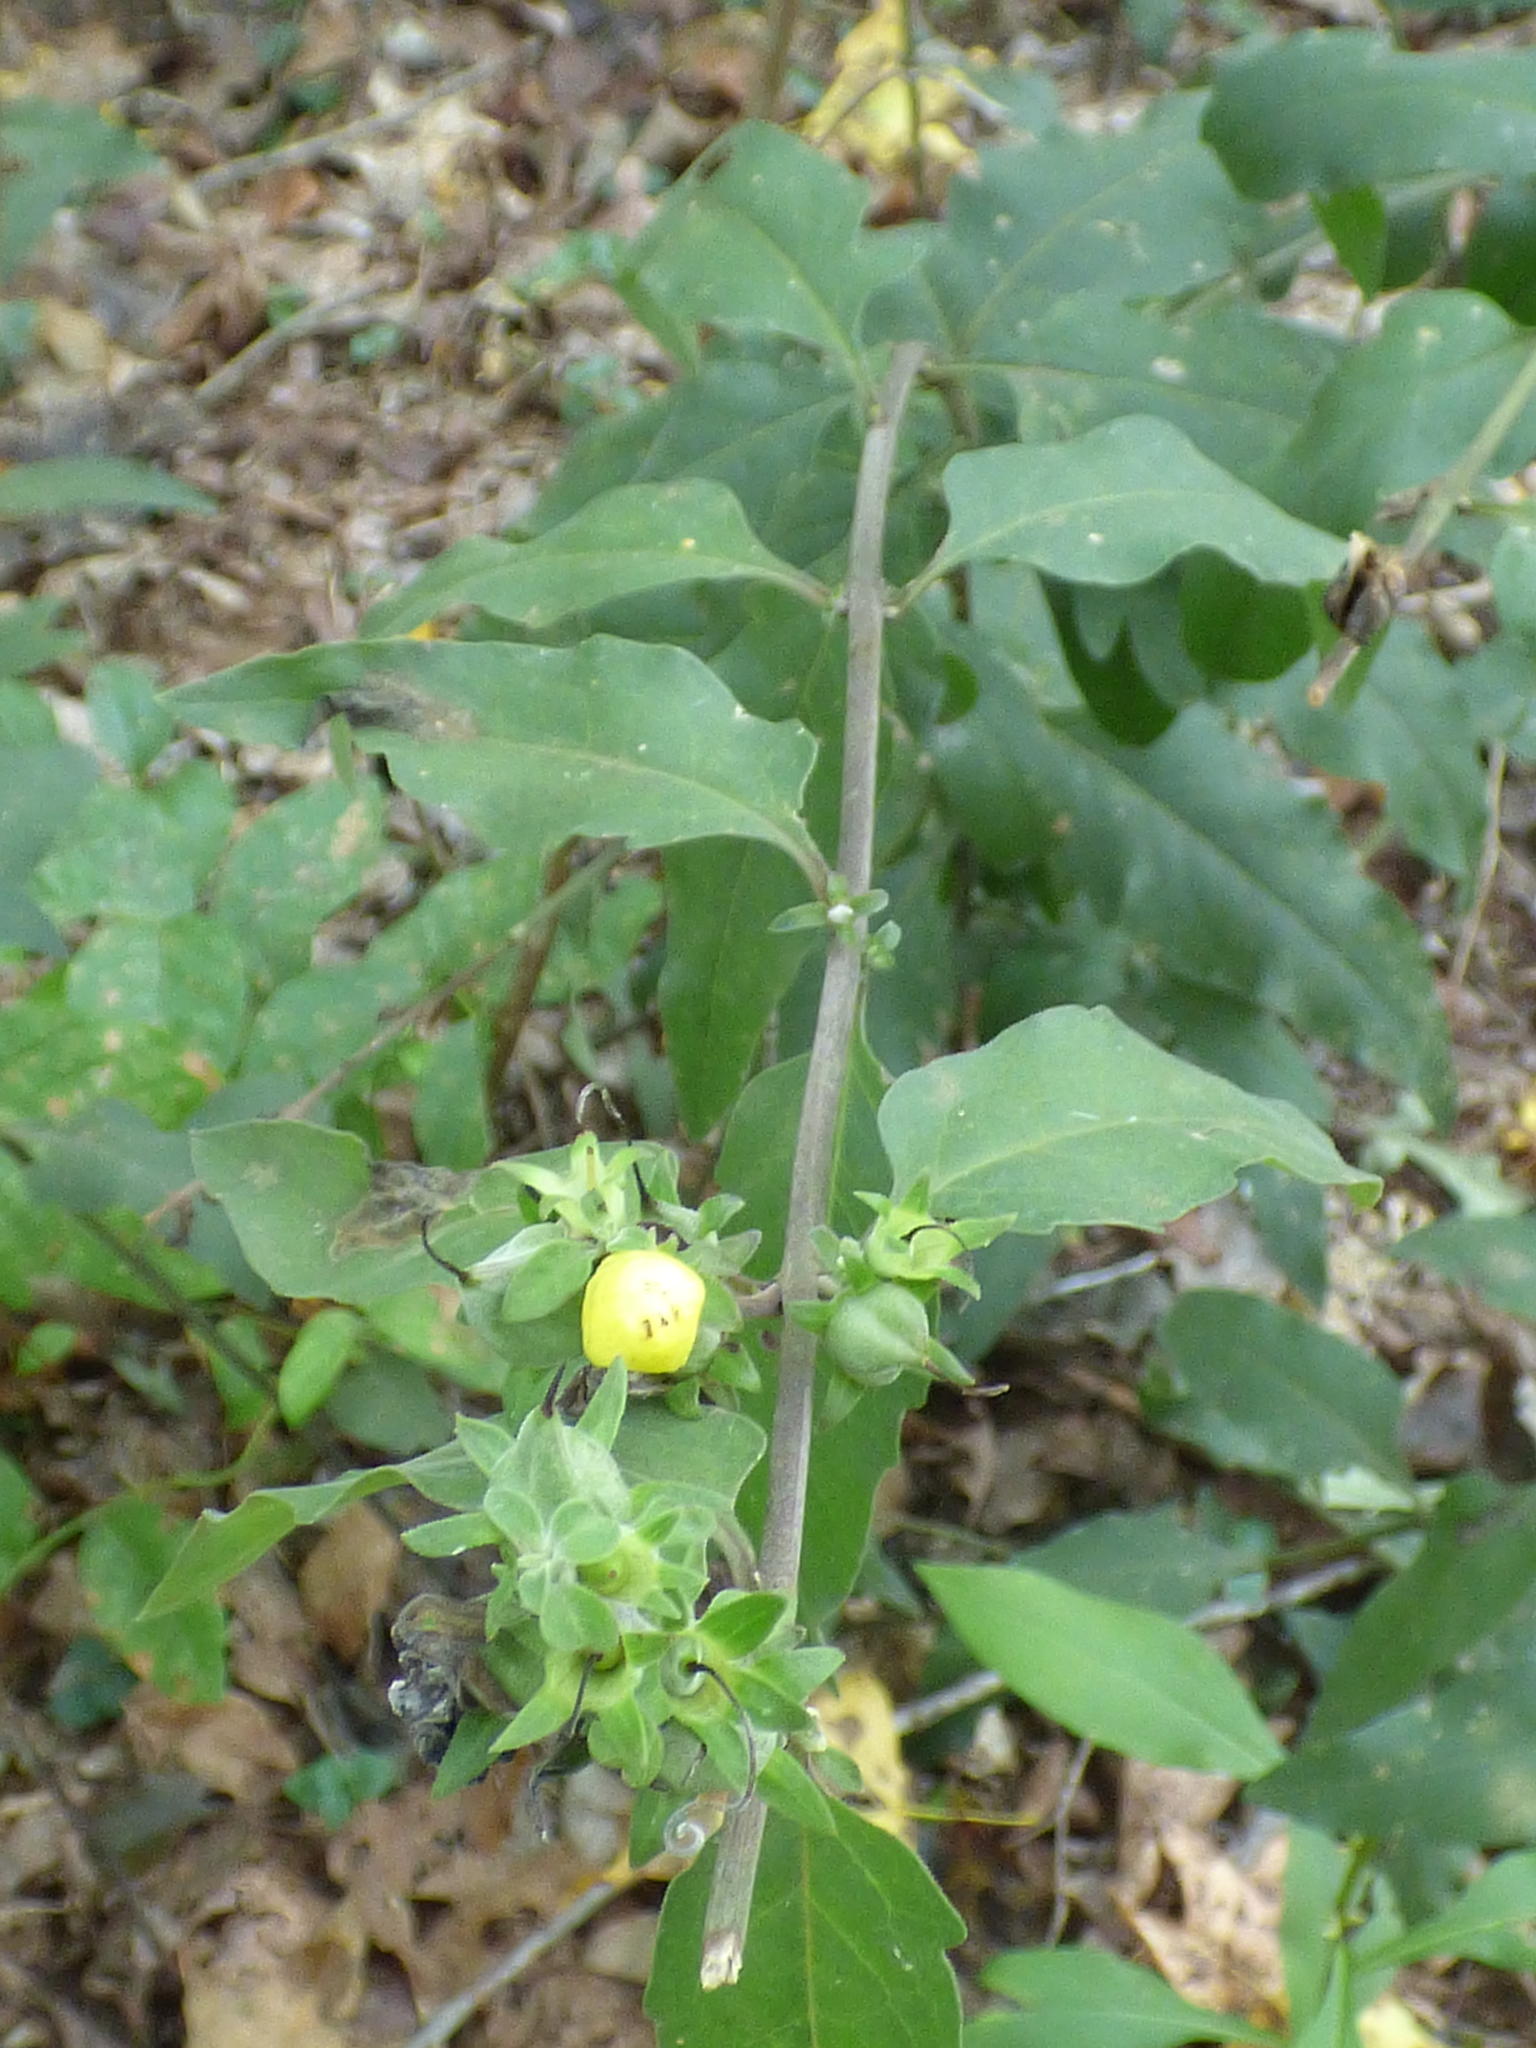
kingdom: Plantae
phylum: Tracheophyta
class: Magnoliopsida
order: Lamiales
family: Orobanchaceae
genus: Aureolaria
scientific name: Aureolaria virginica
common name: Downy false foxglove
